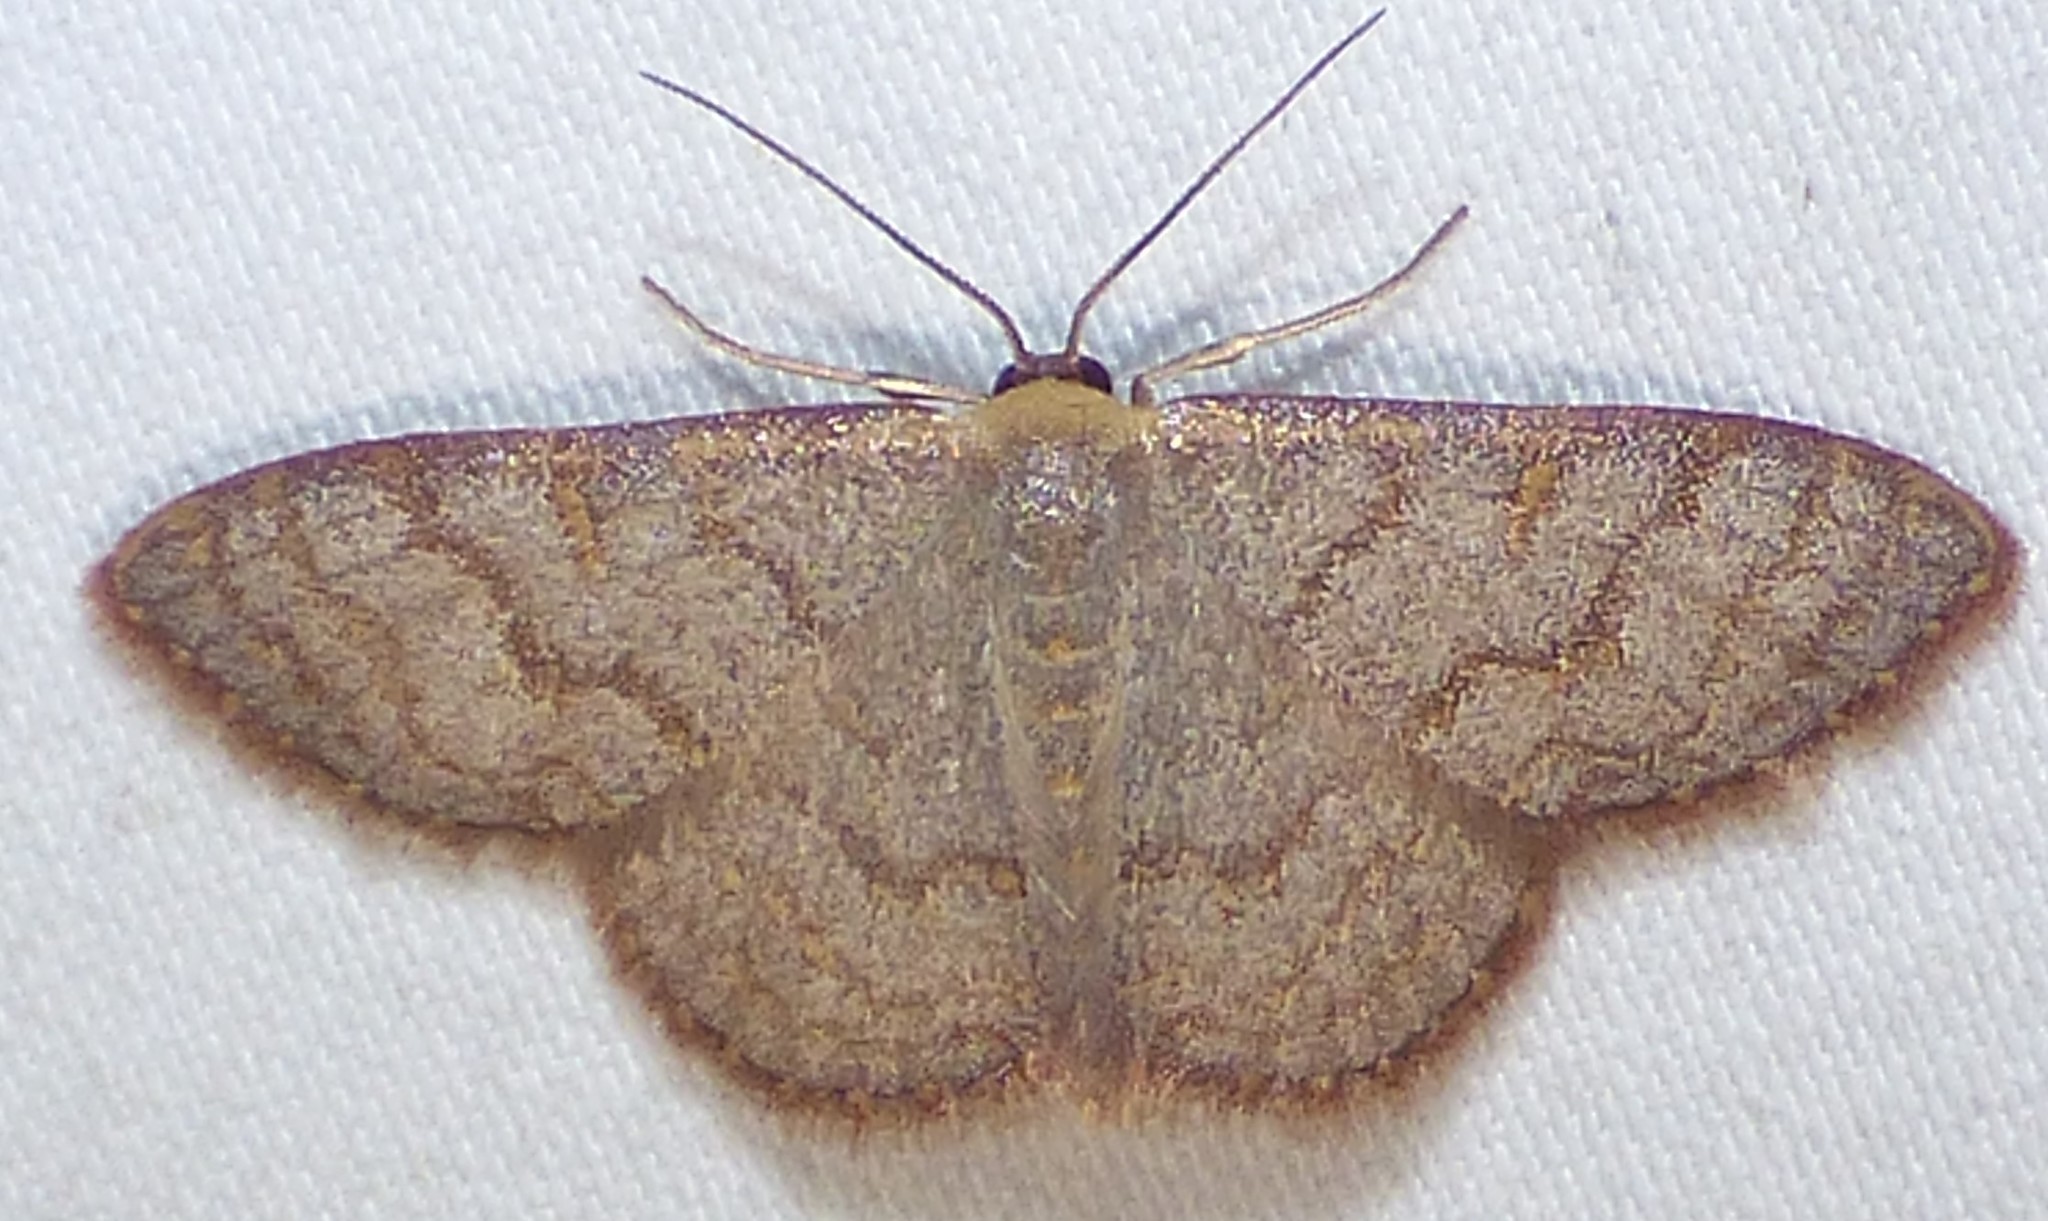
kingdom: Animalia
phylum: Arthropoda
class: Insecta
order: Lepidoptera
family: Geometridae
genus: Leptostales
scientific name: Leptostales pannaria
